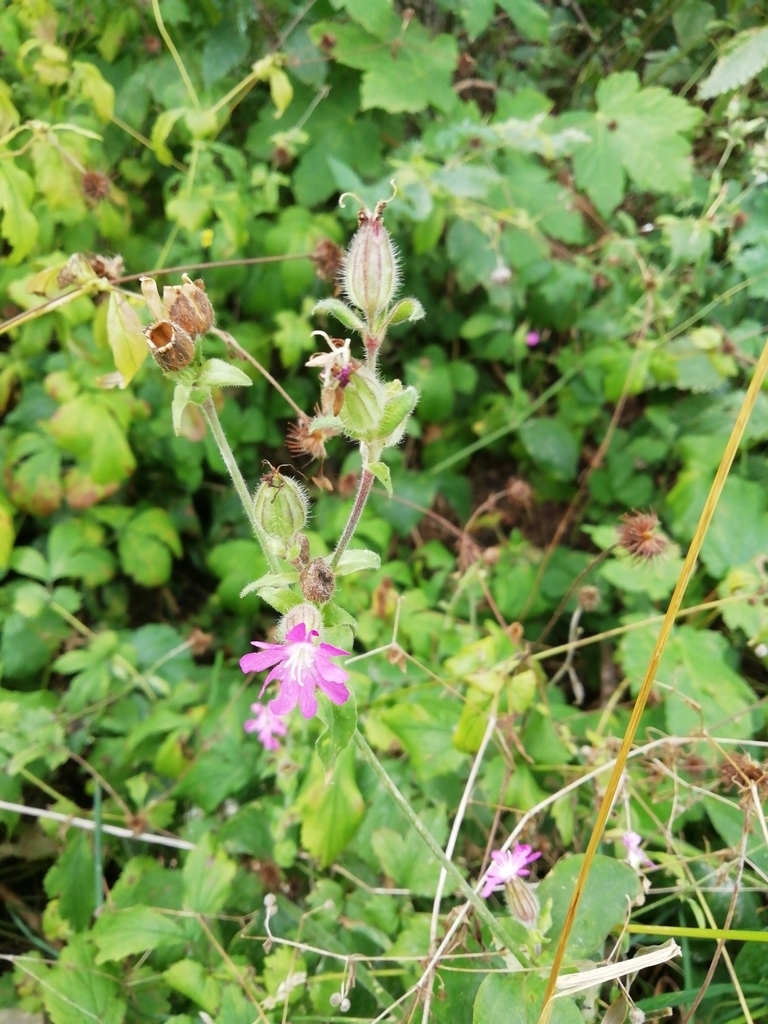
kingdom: Plantae
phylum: Tracheophyta
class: Magnoliopsida
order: Caryophyllales
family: Caryophyllaceae
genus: Silene
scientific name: Silene dioica
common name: Red campion
